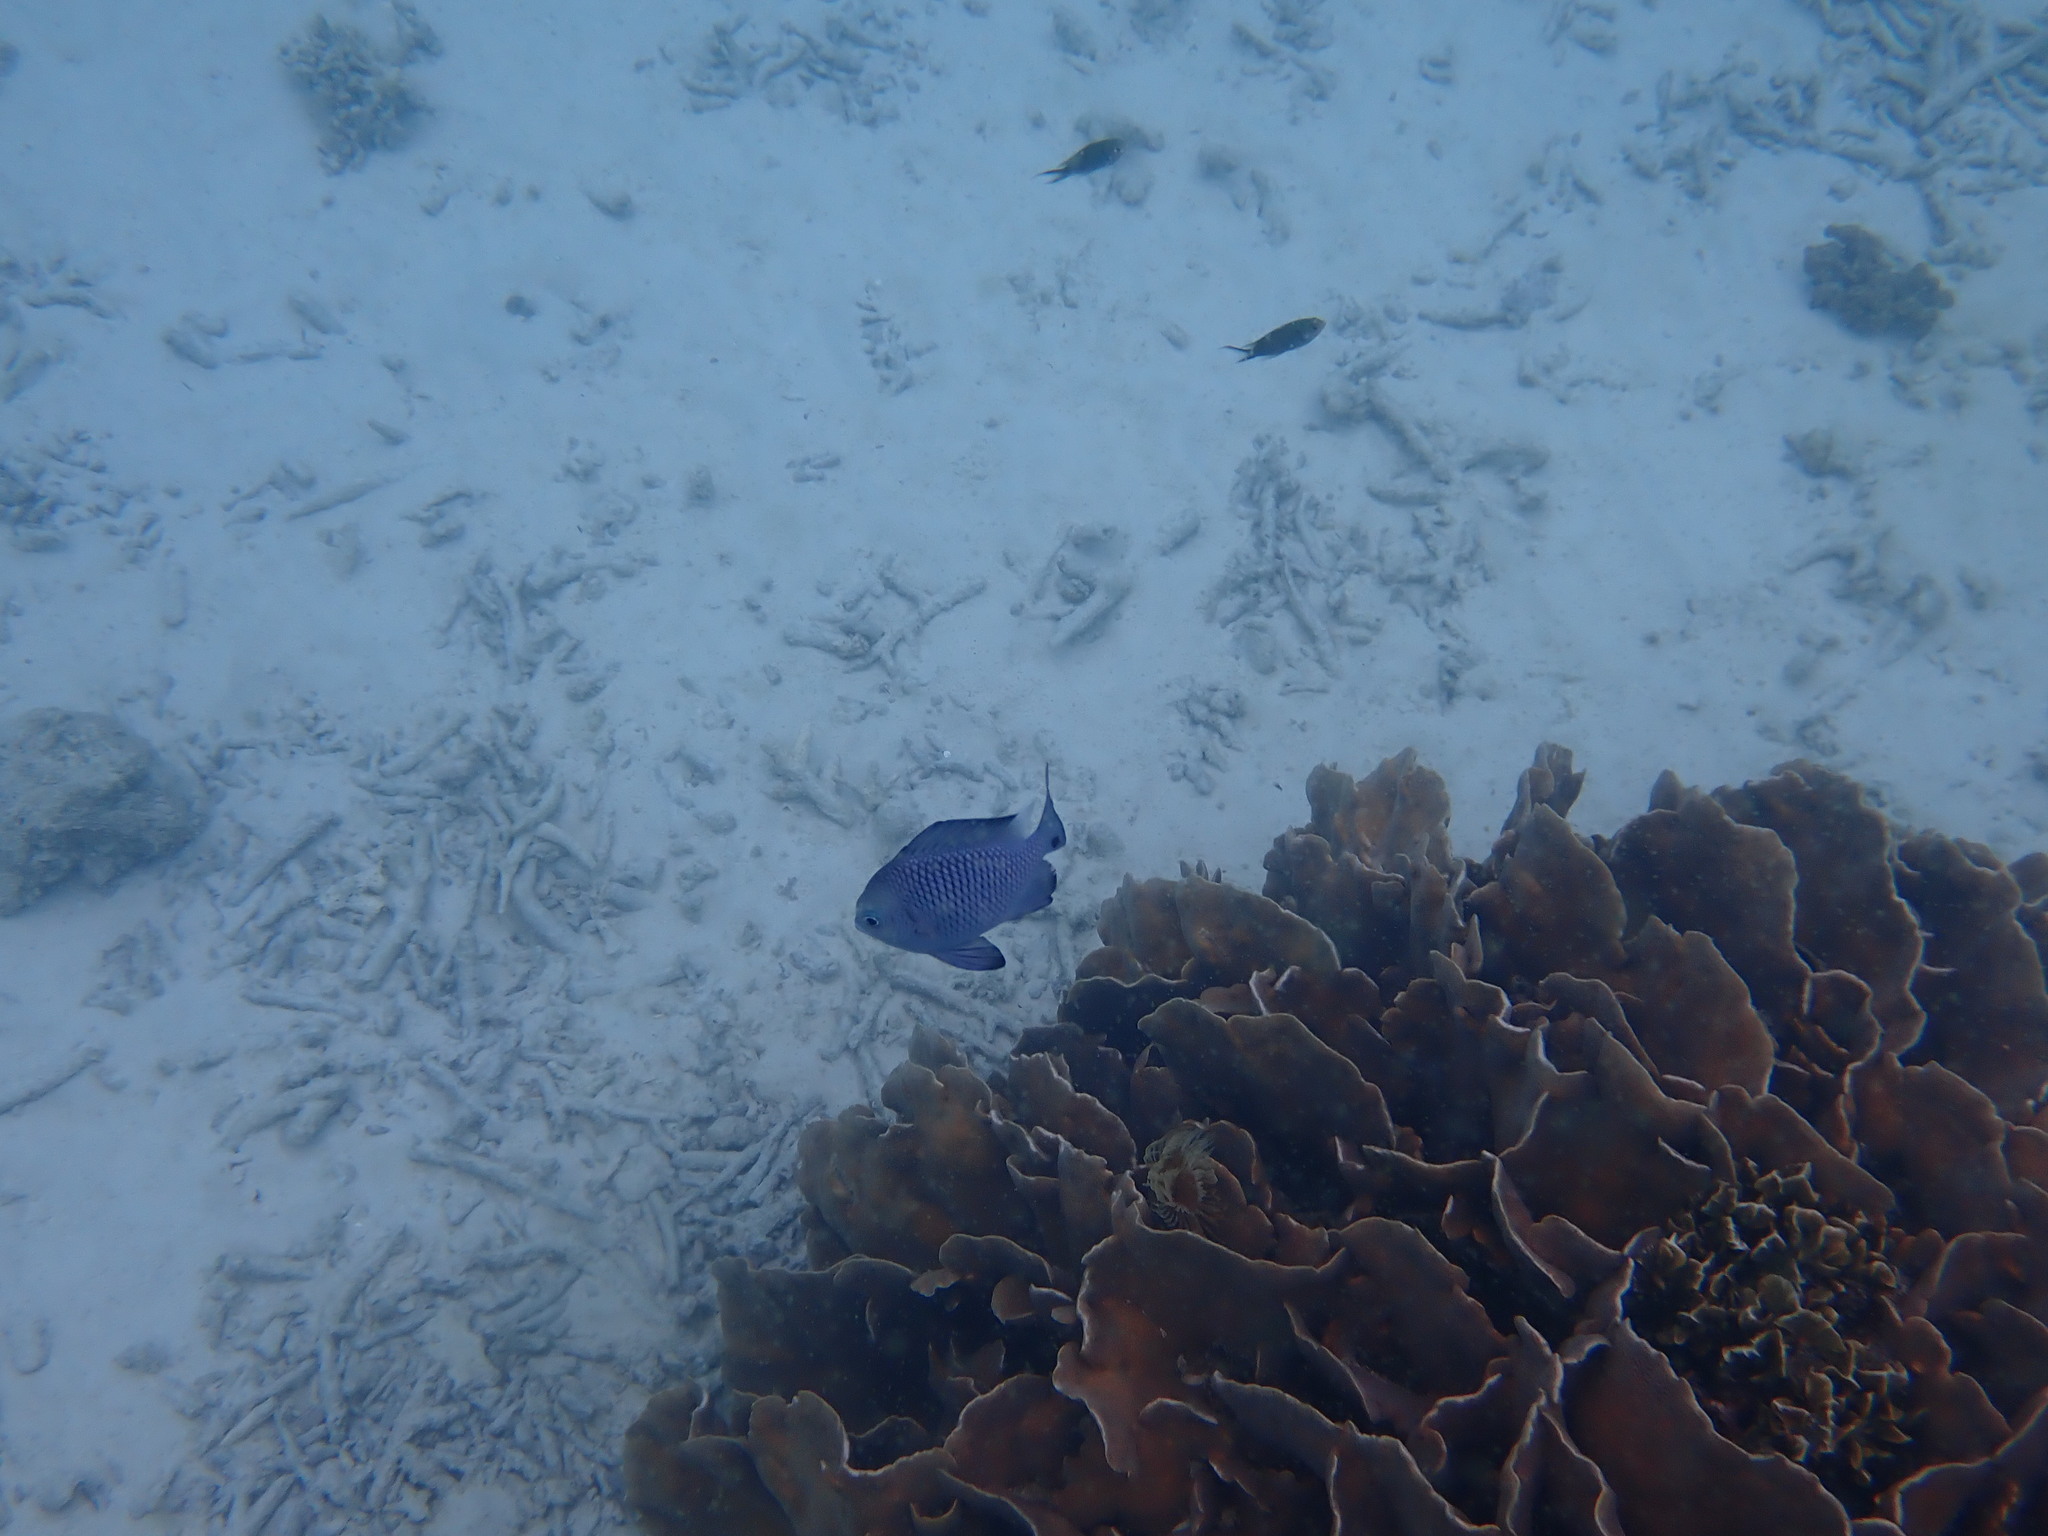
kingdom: Animalia
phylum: Chordata
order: Perciformes
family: Pomacentridae
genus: Dascyllus
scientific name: Dascyllus trimaculatus
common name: Threespot dascyllus
